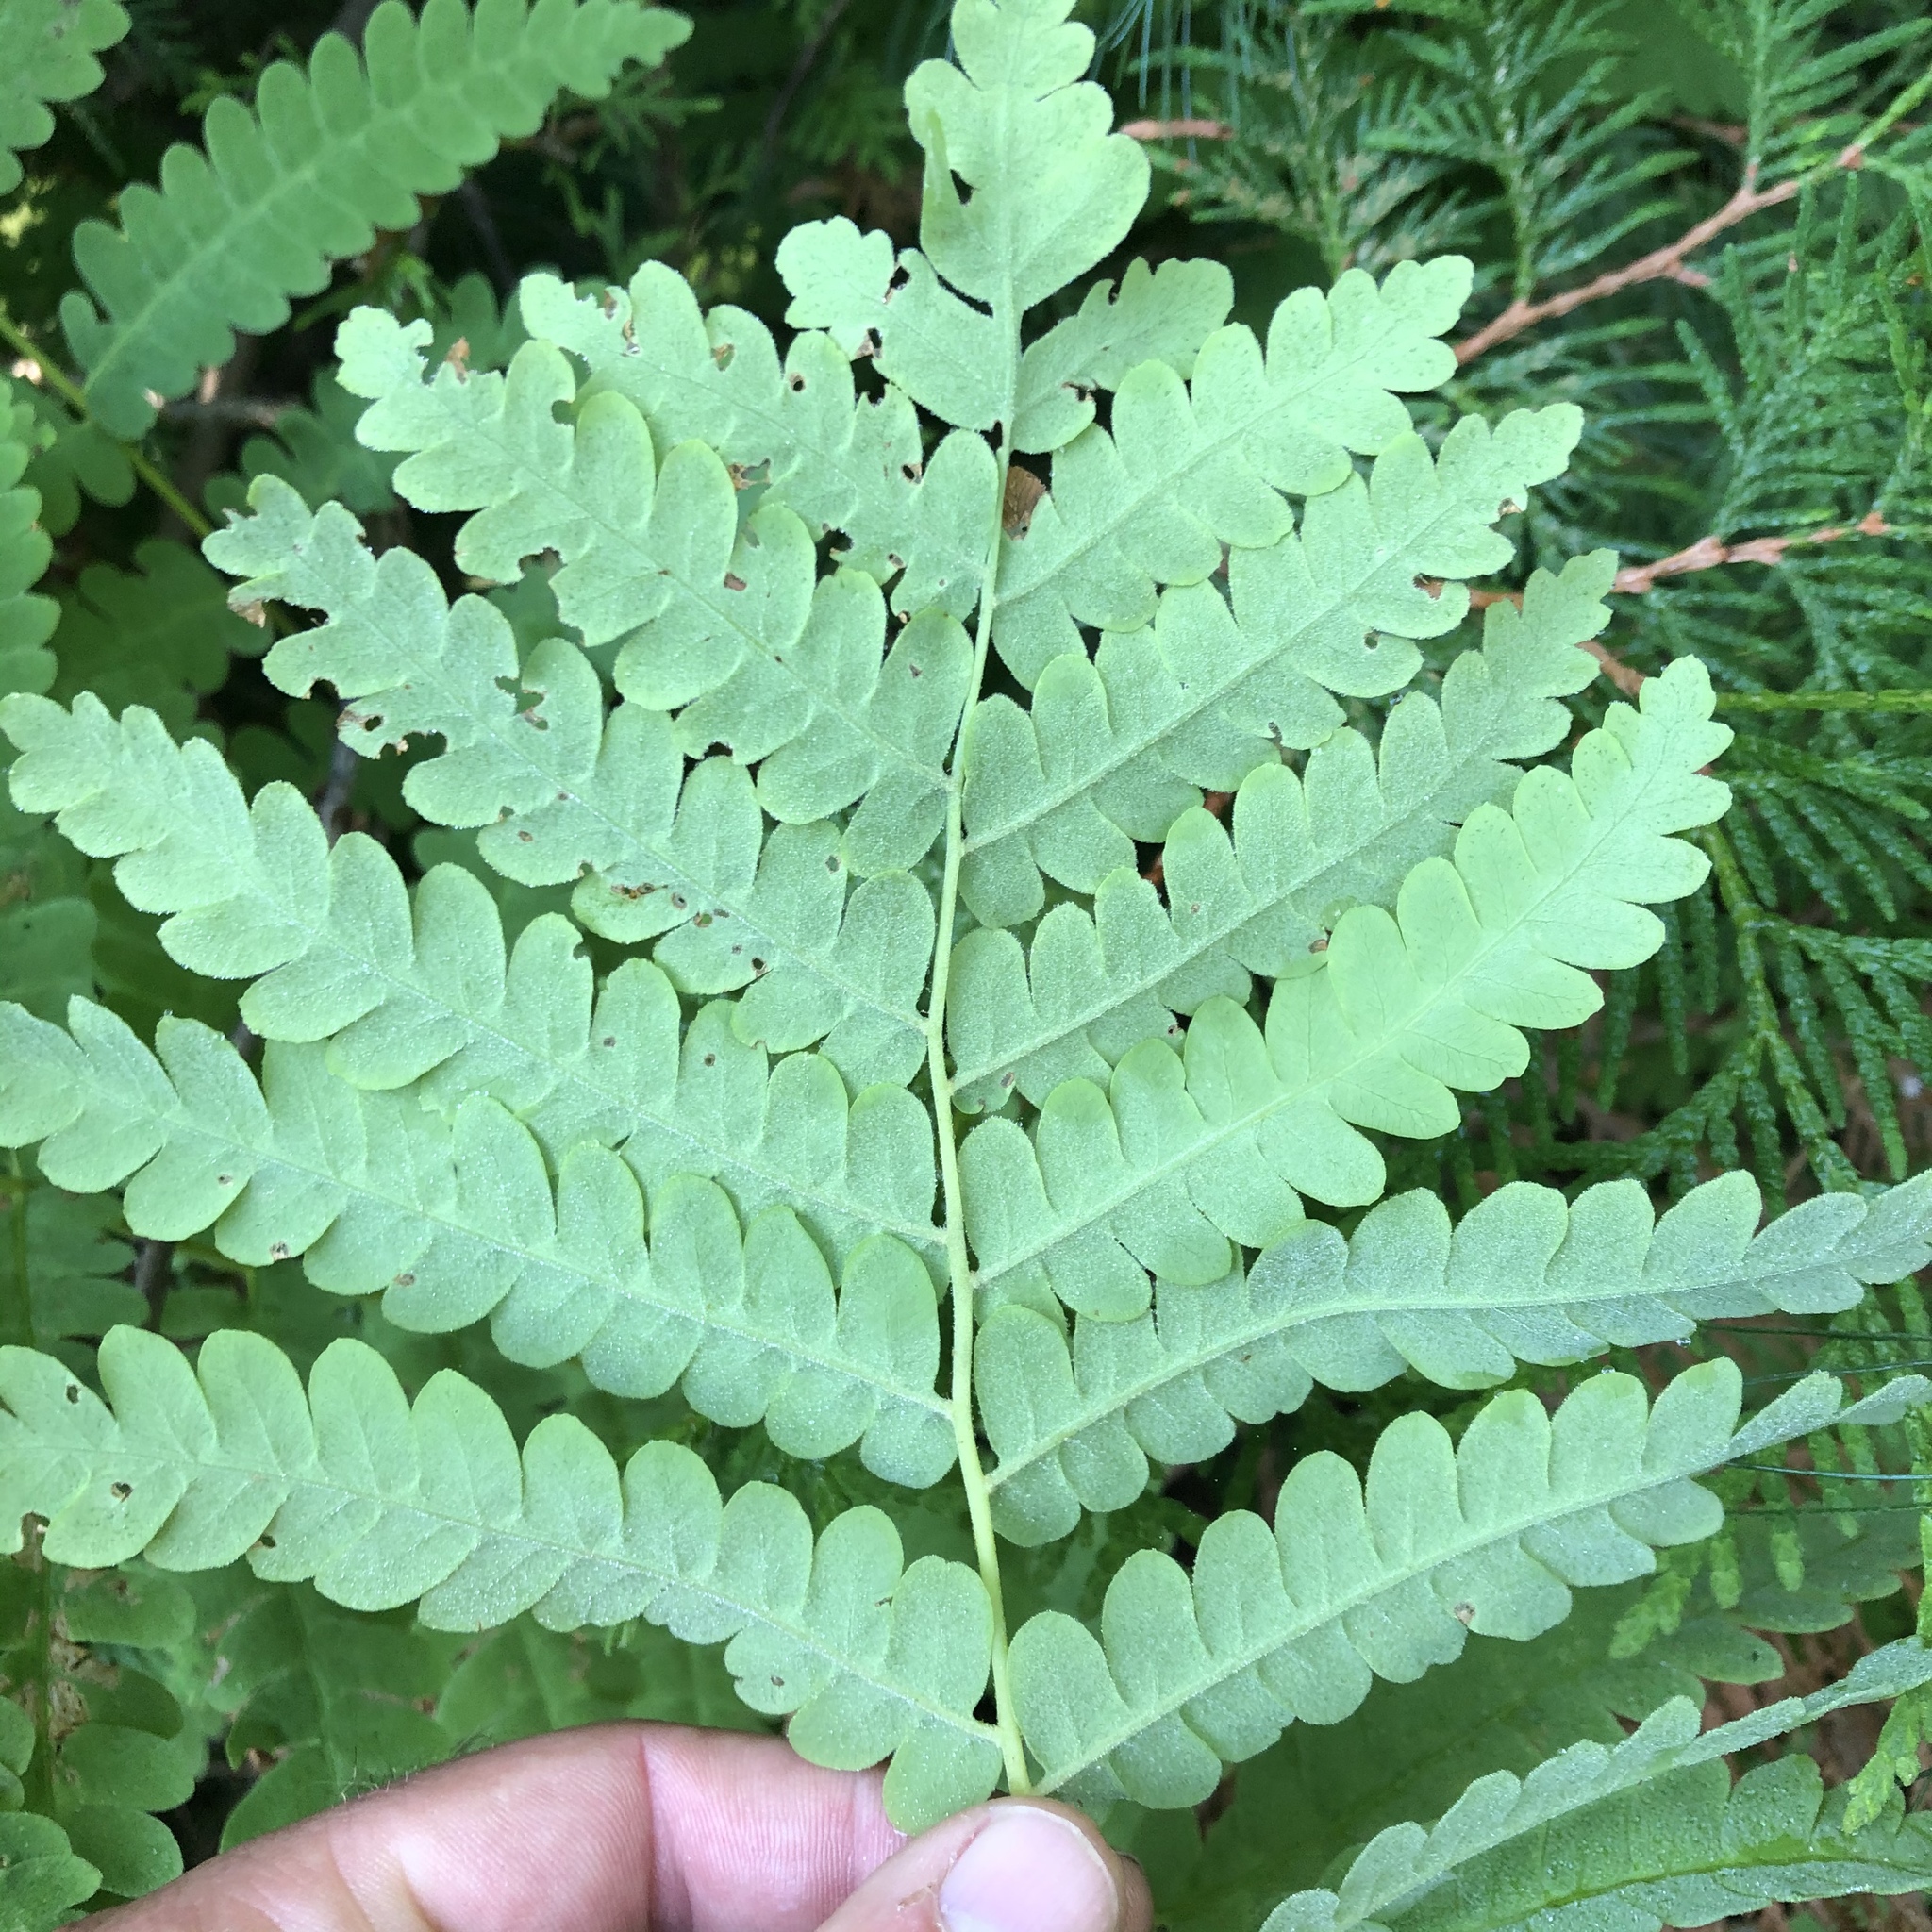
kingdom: Plantae
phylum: Tracheophyta
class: Polypodiopsida
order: Osmundales
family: Osmundaceae
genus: Claytosmunda
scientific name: Claytosmunda claytoniana
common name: Clayton's fern
